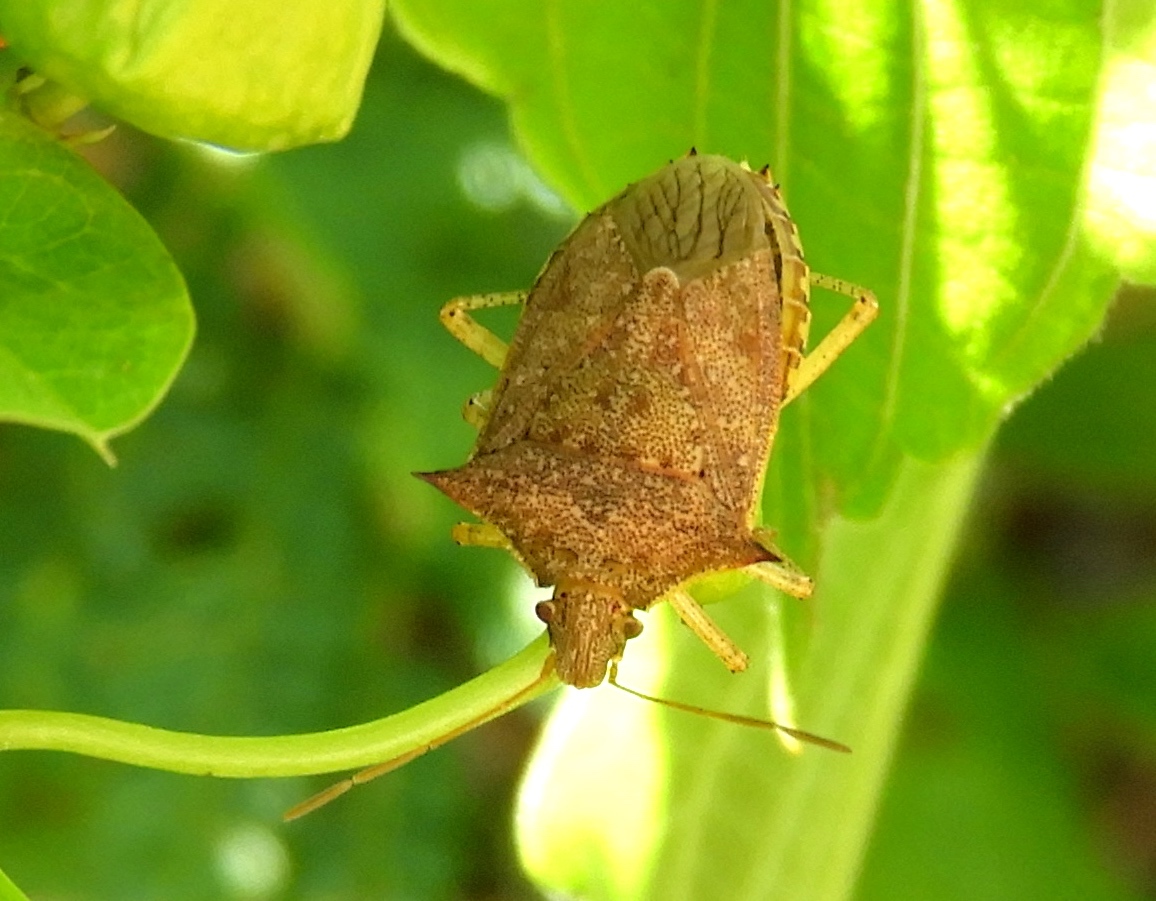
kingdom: Animalia
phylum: Arthropoda
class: Insecta
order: Hemiptera
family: Pentatomidae
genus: Euschistus
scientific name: Euschistus
